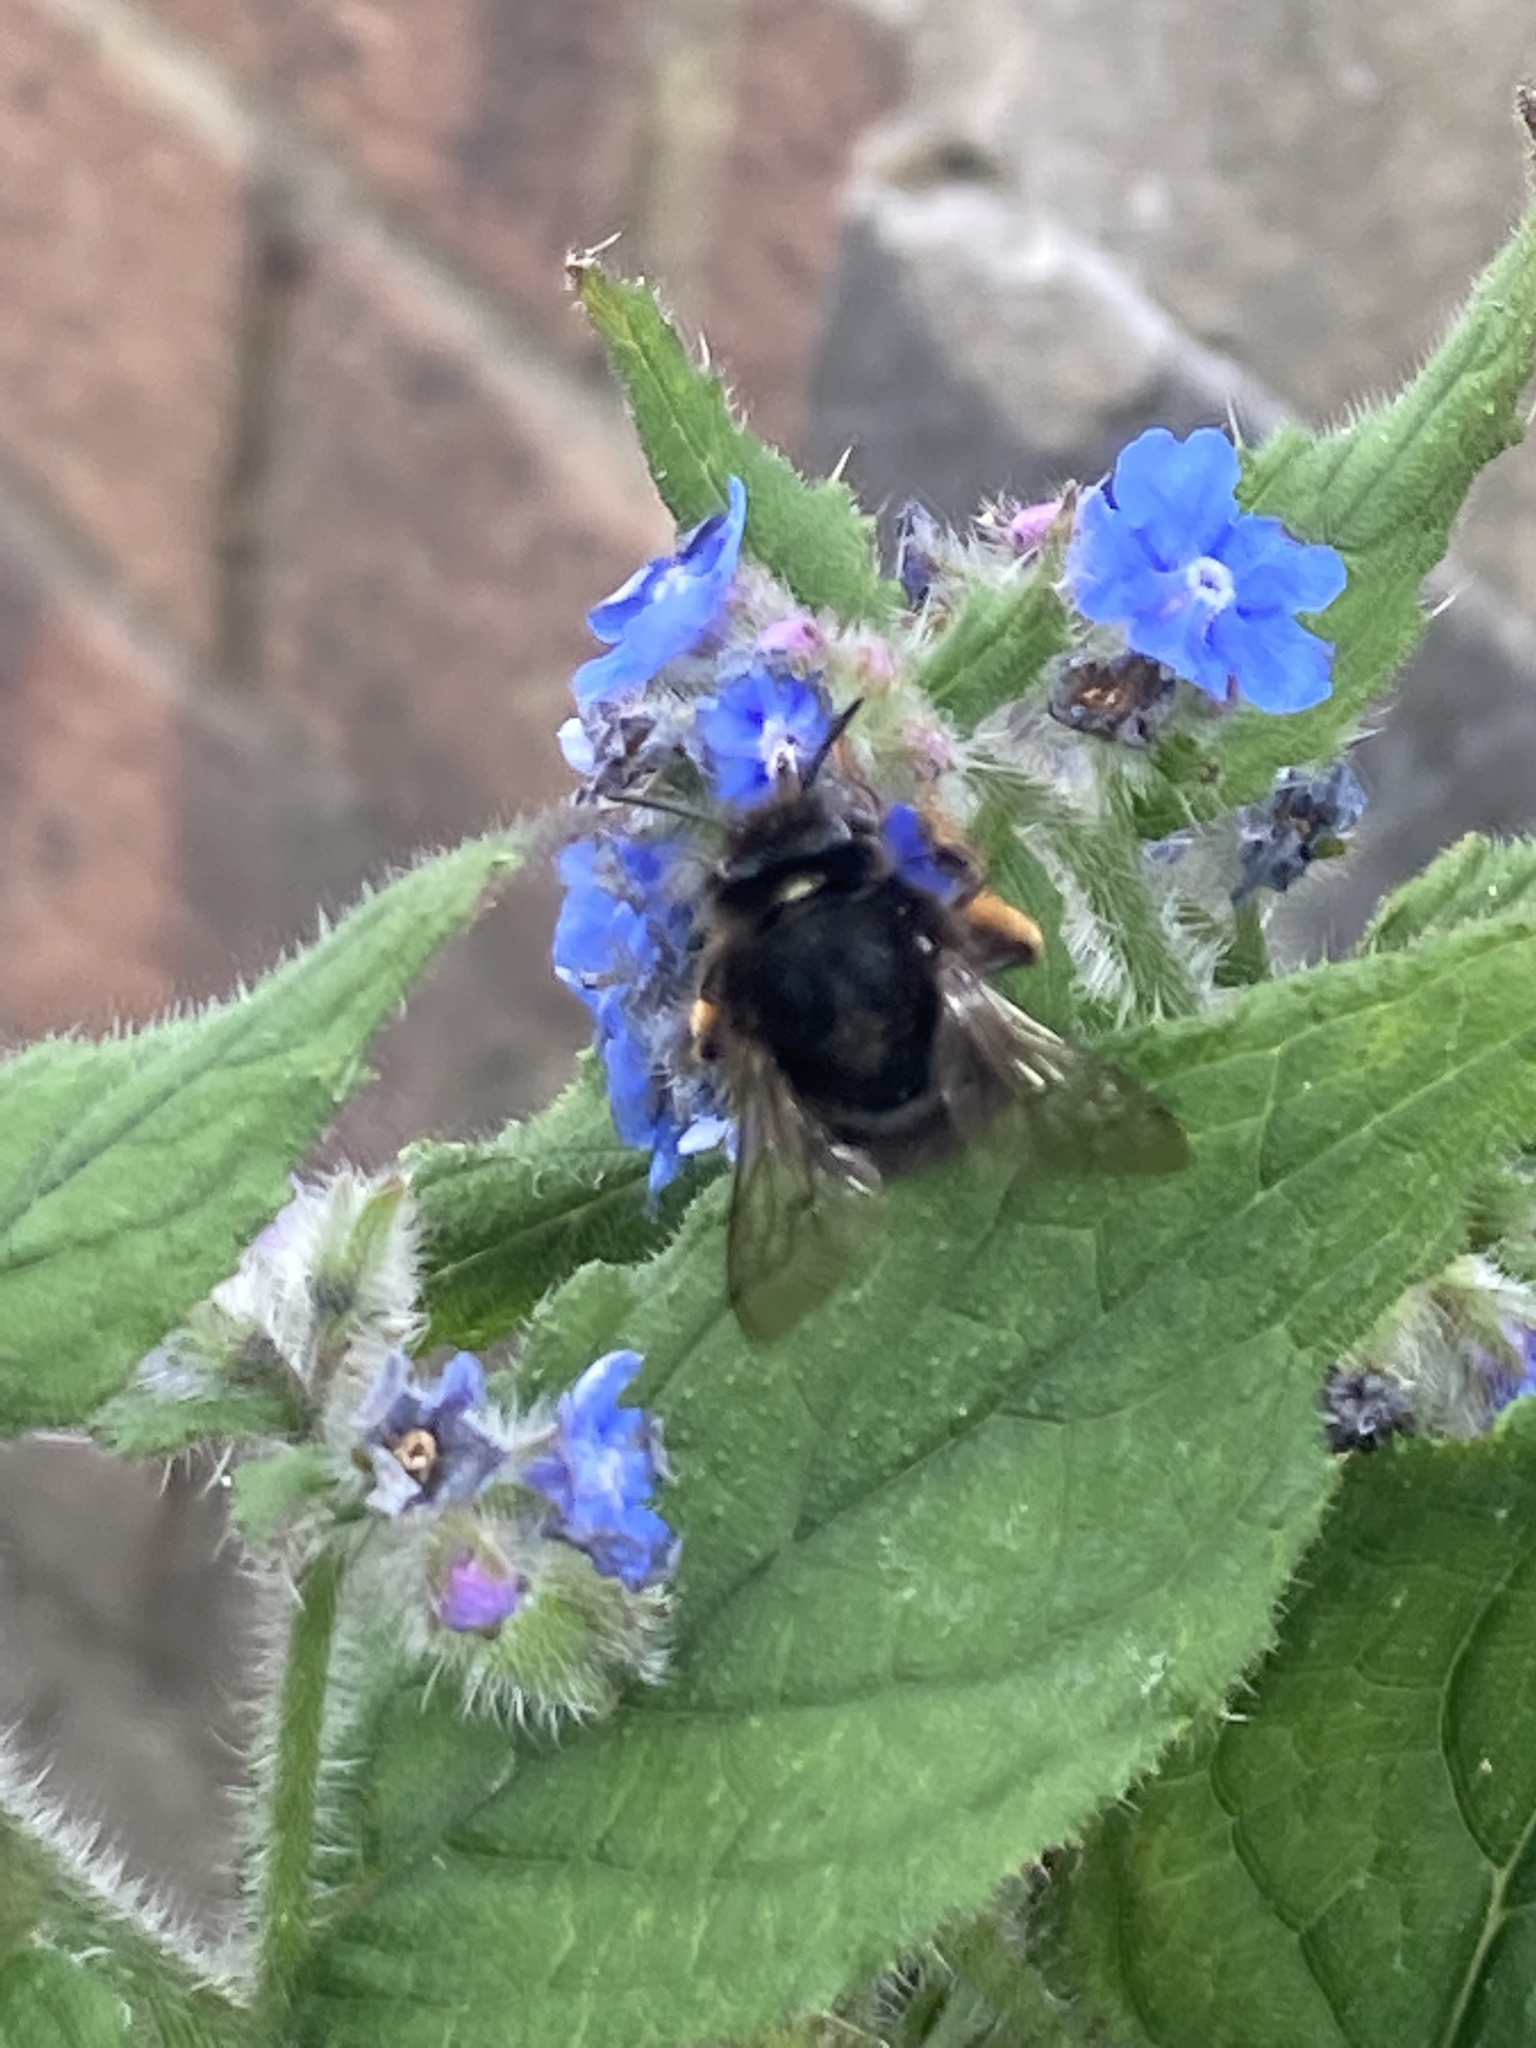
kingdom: Animalia
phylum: Arthropoda
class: Insecta
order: Hymenoptera
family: Apidae
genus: Anthophora
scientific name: Anthophora plumipes
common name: Hairy-footed flower bee
